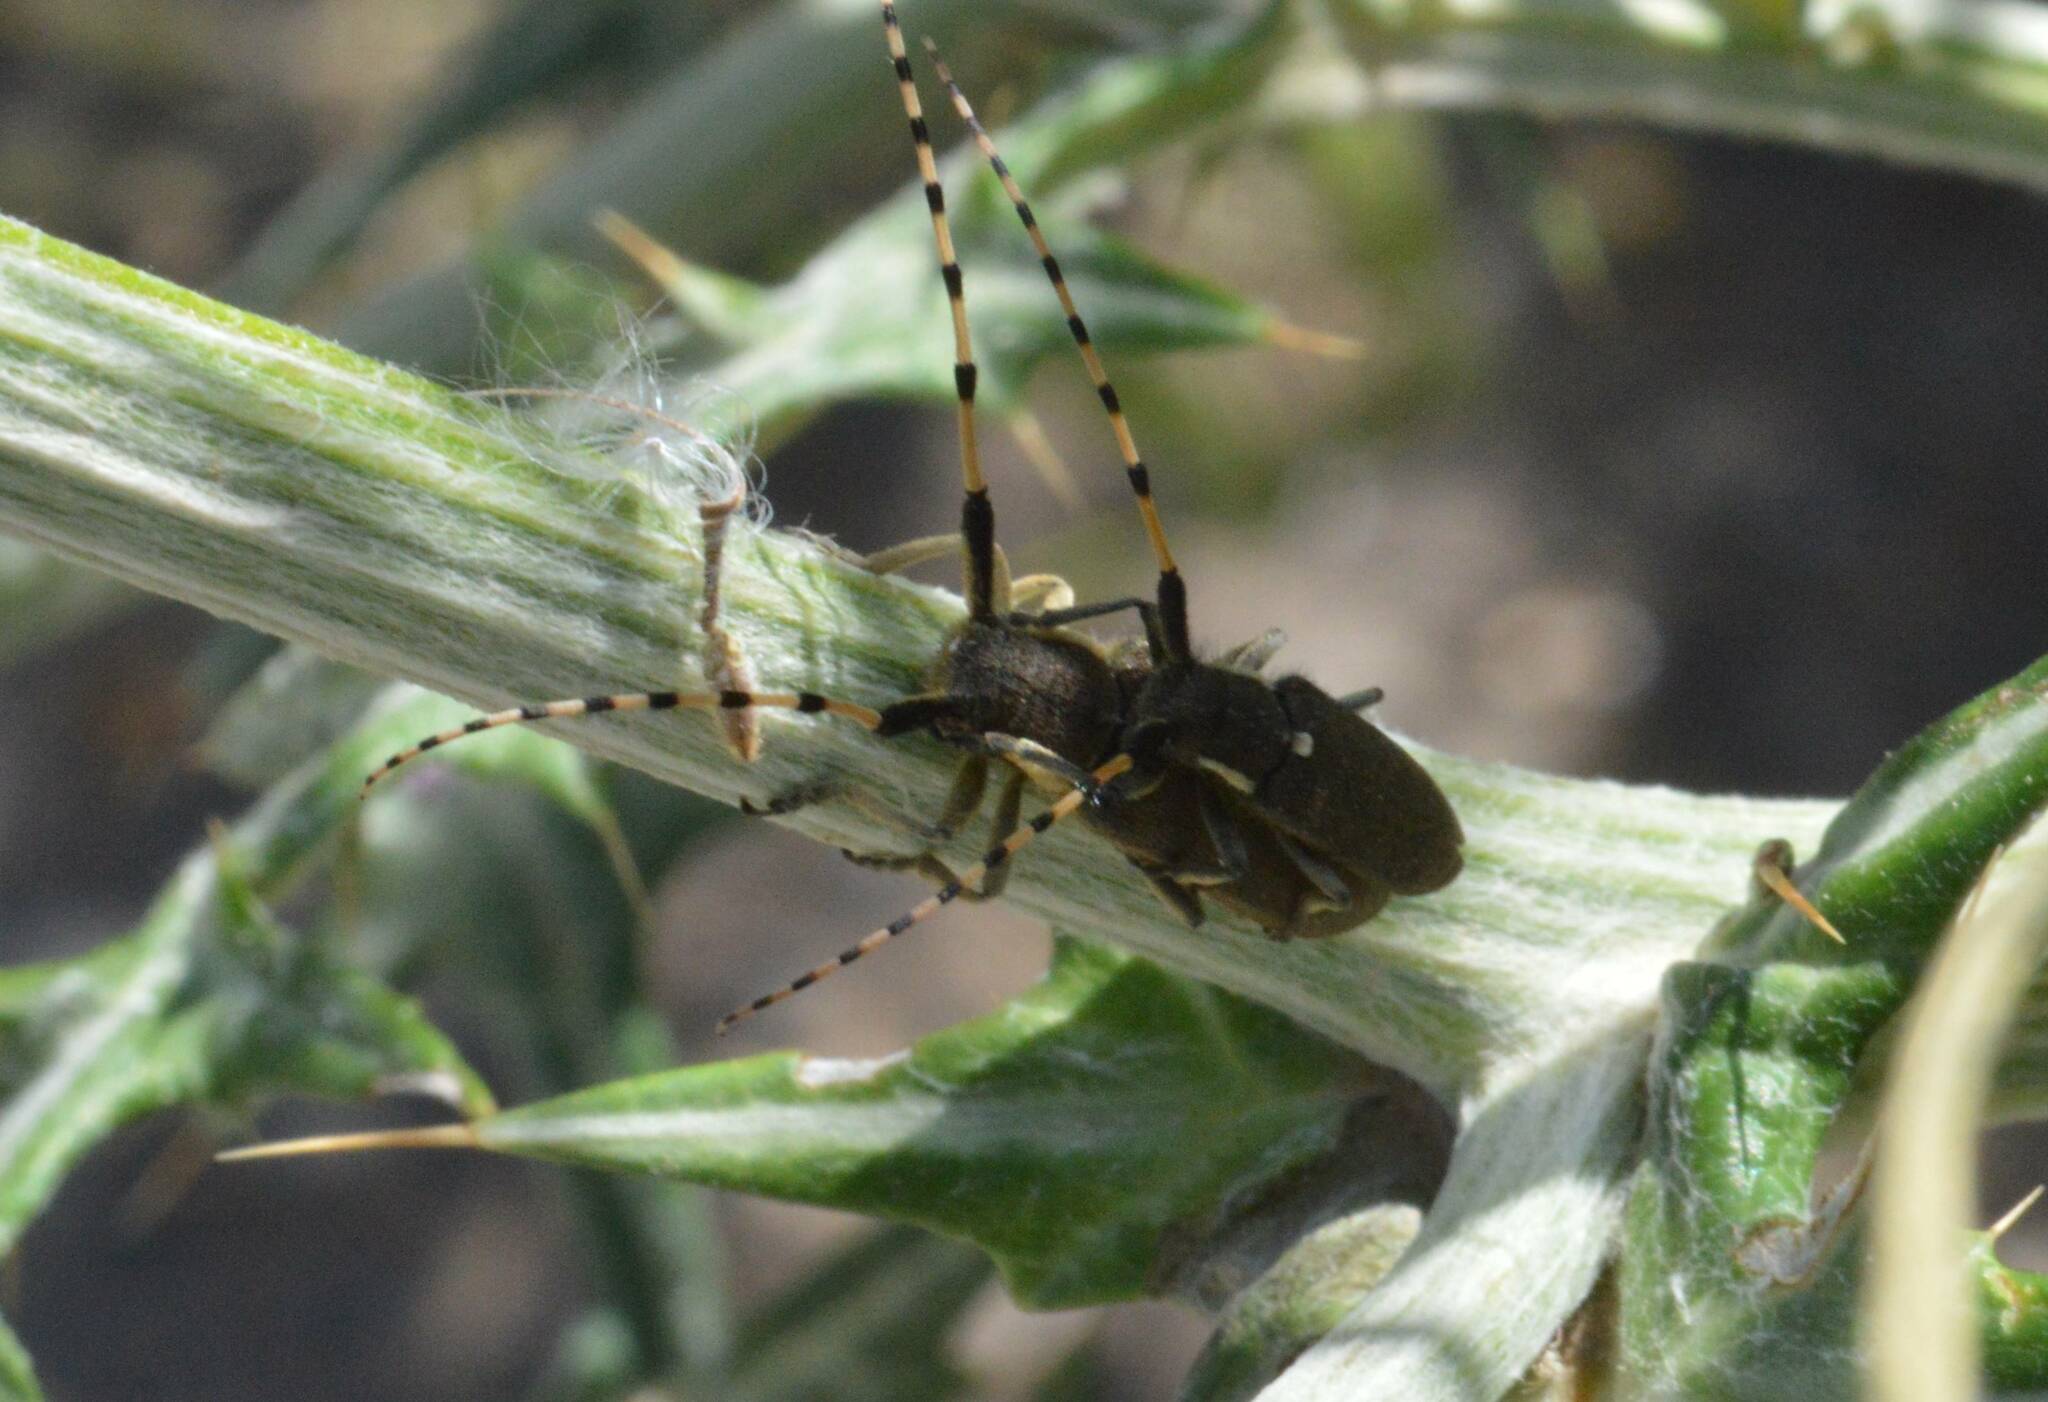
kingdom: Animalia
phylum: Arthropoda
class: Insecta
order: Coleoptera
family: Cerambycidae
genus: Agapanthia
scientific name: Agapanthia annularis
